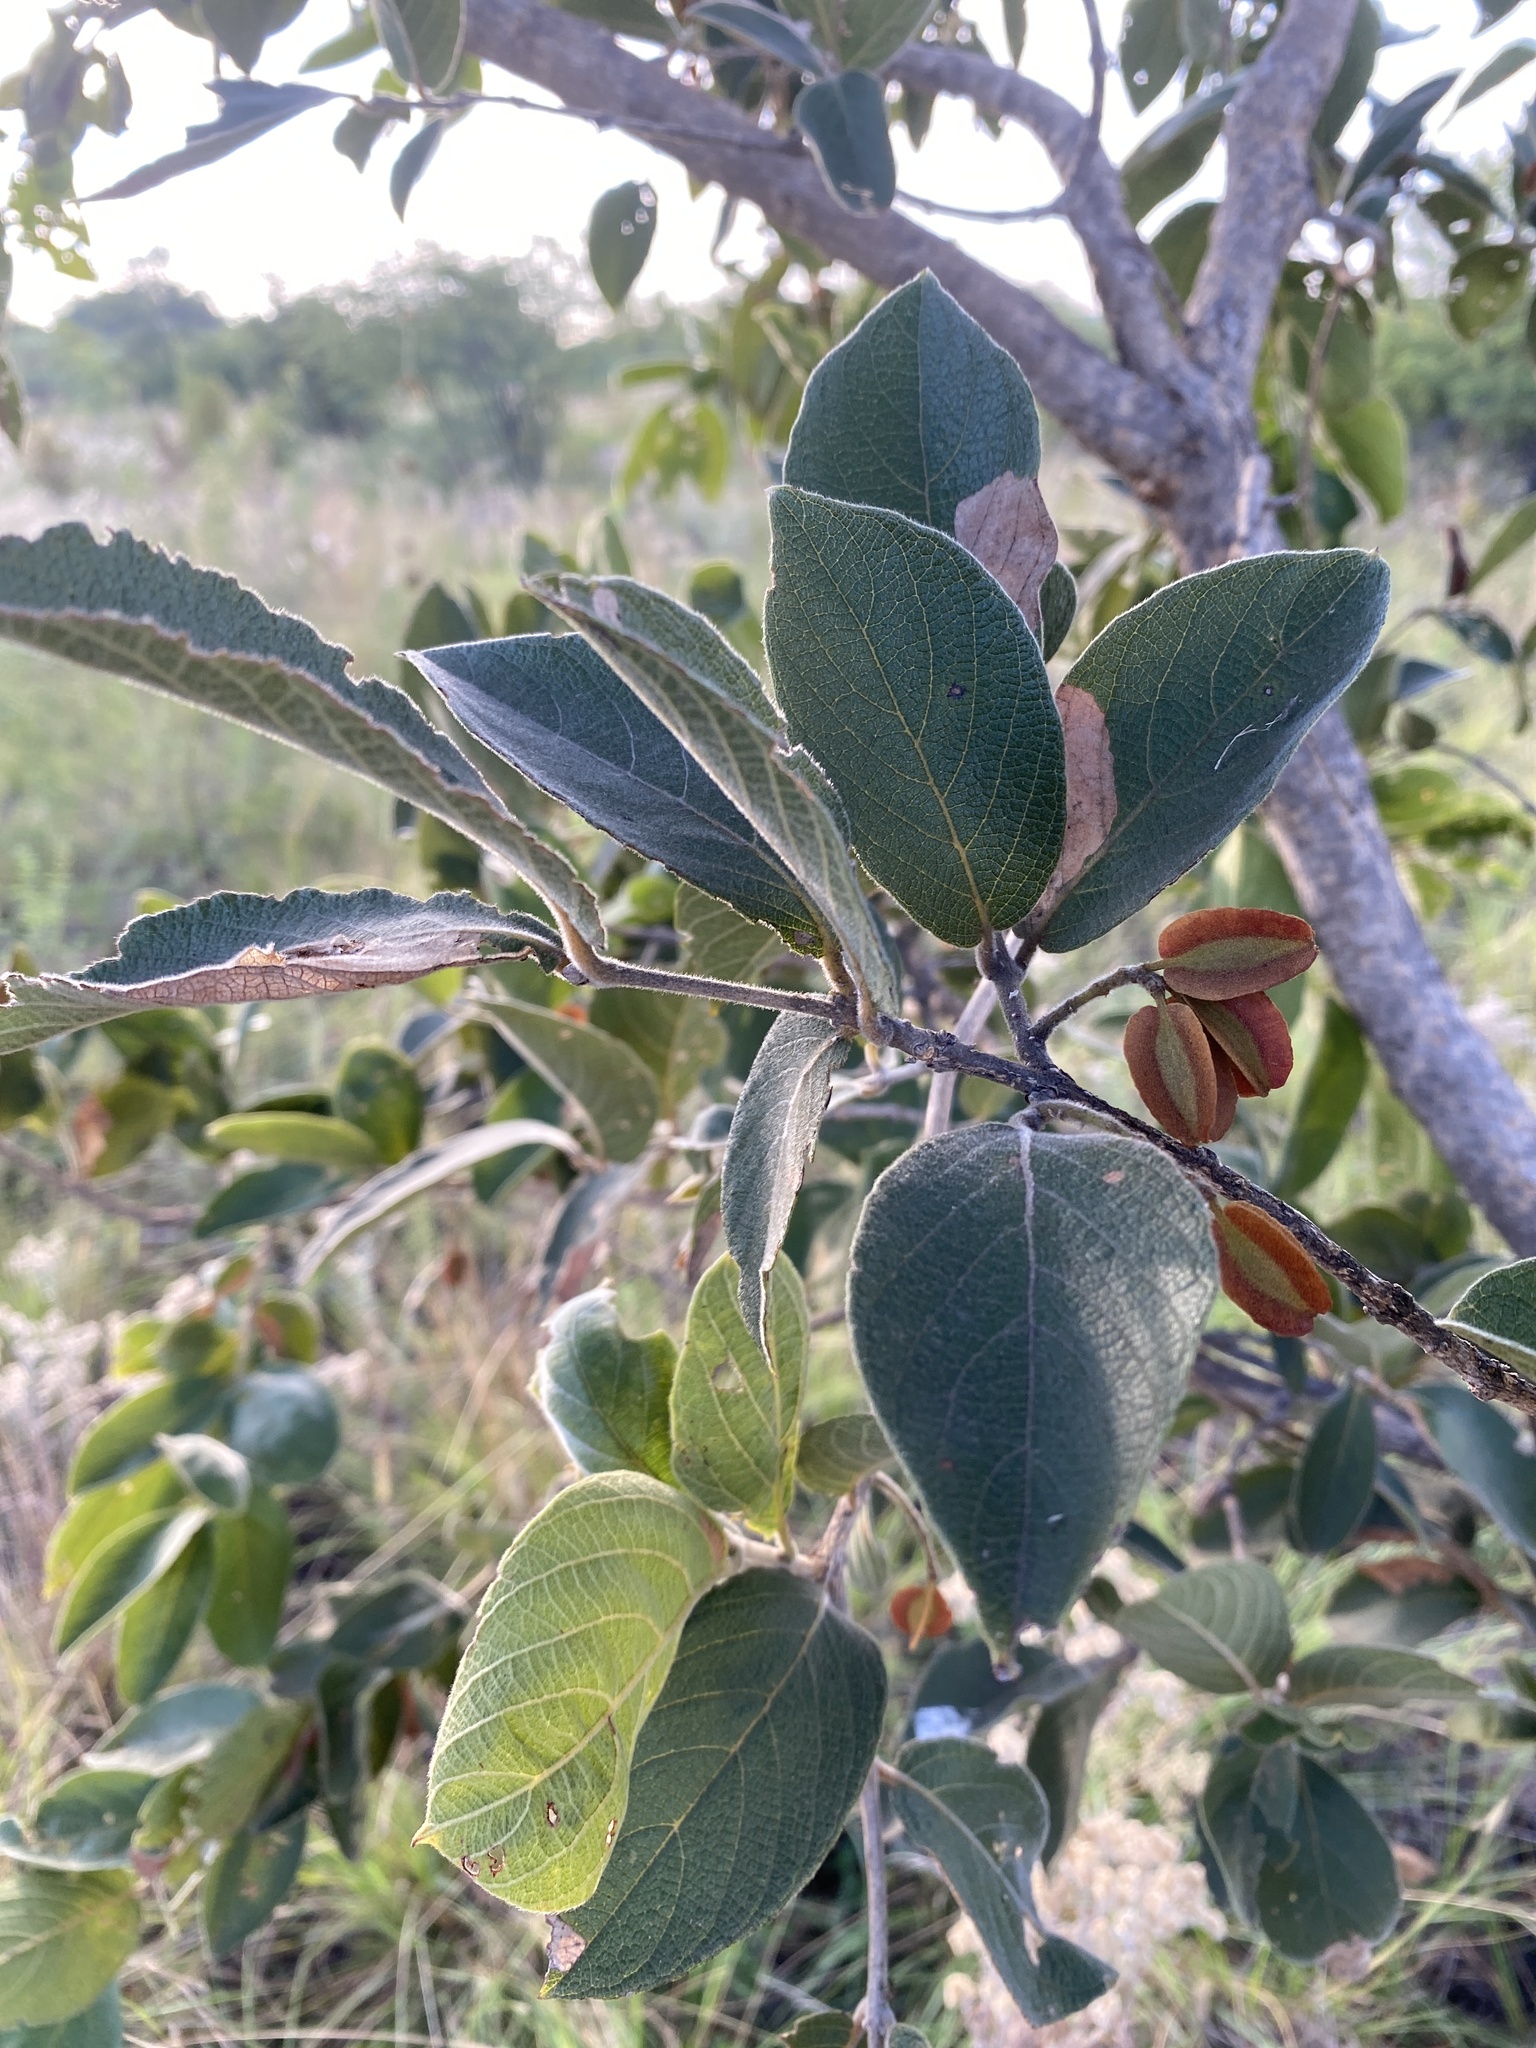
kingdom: Plantae
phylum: Tracheophyta
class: Magnoliopsida
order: Myrtales
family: Combretaceae
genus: Combretum
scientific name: Combretum molle
